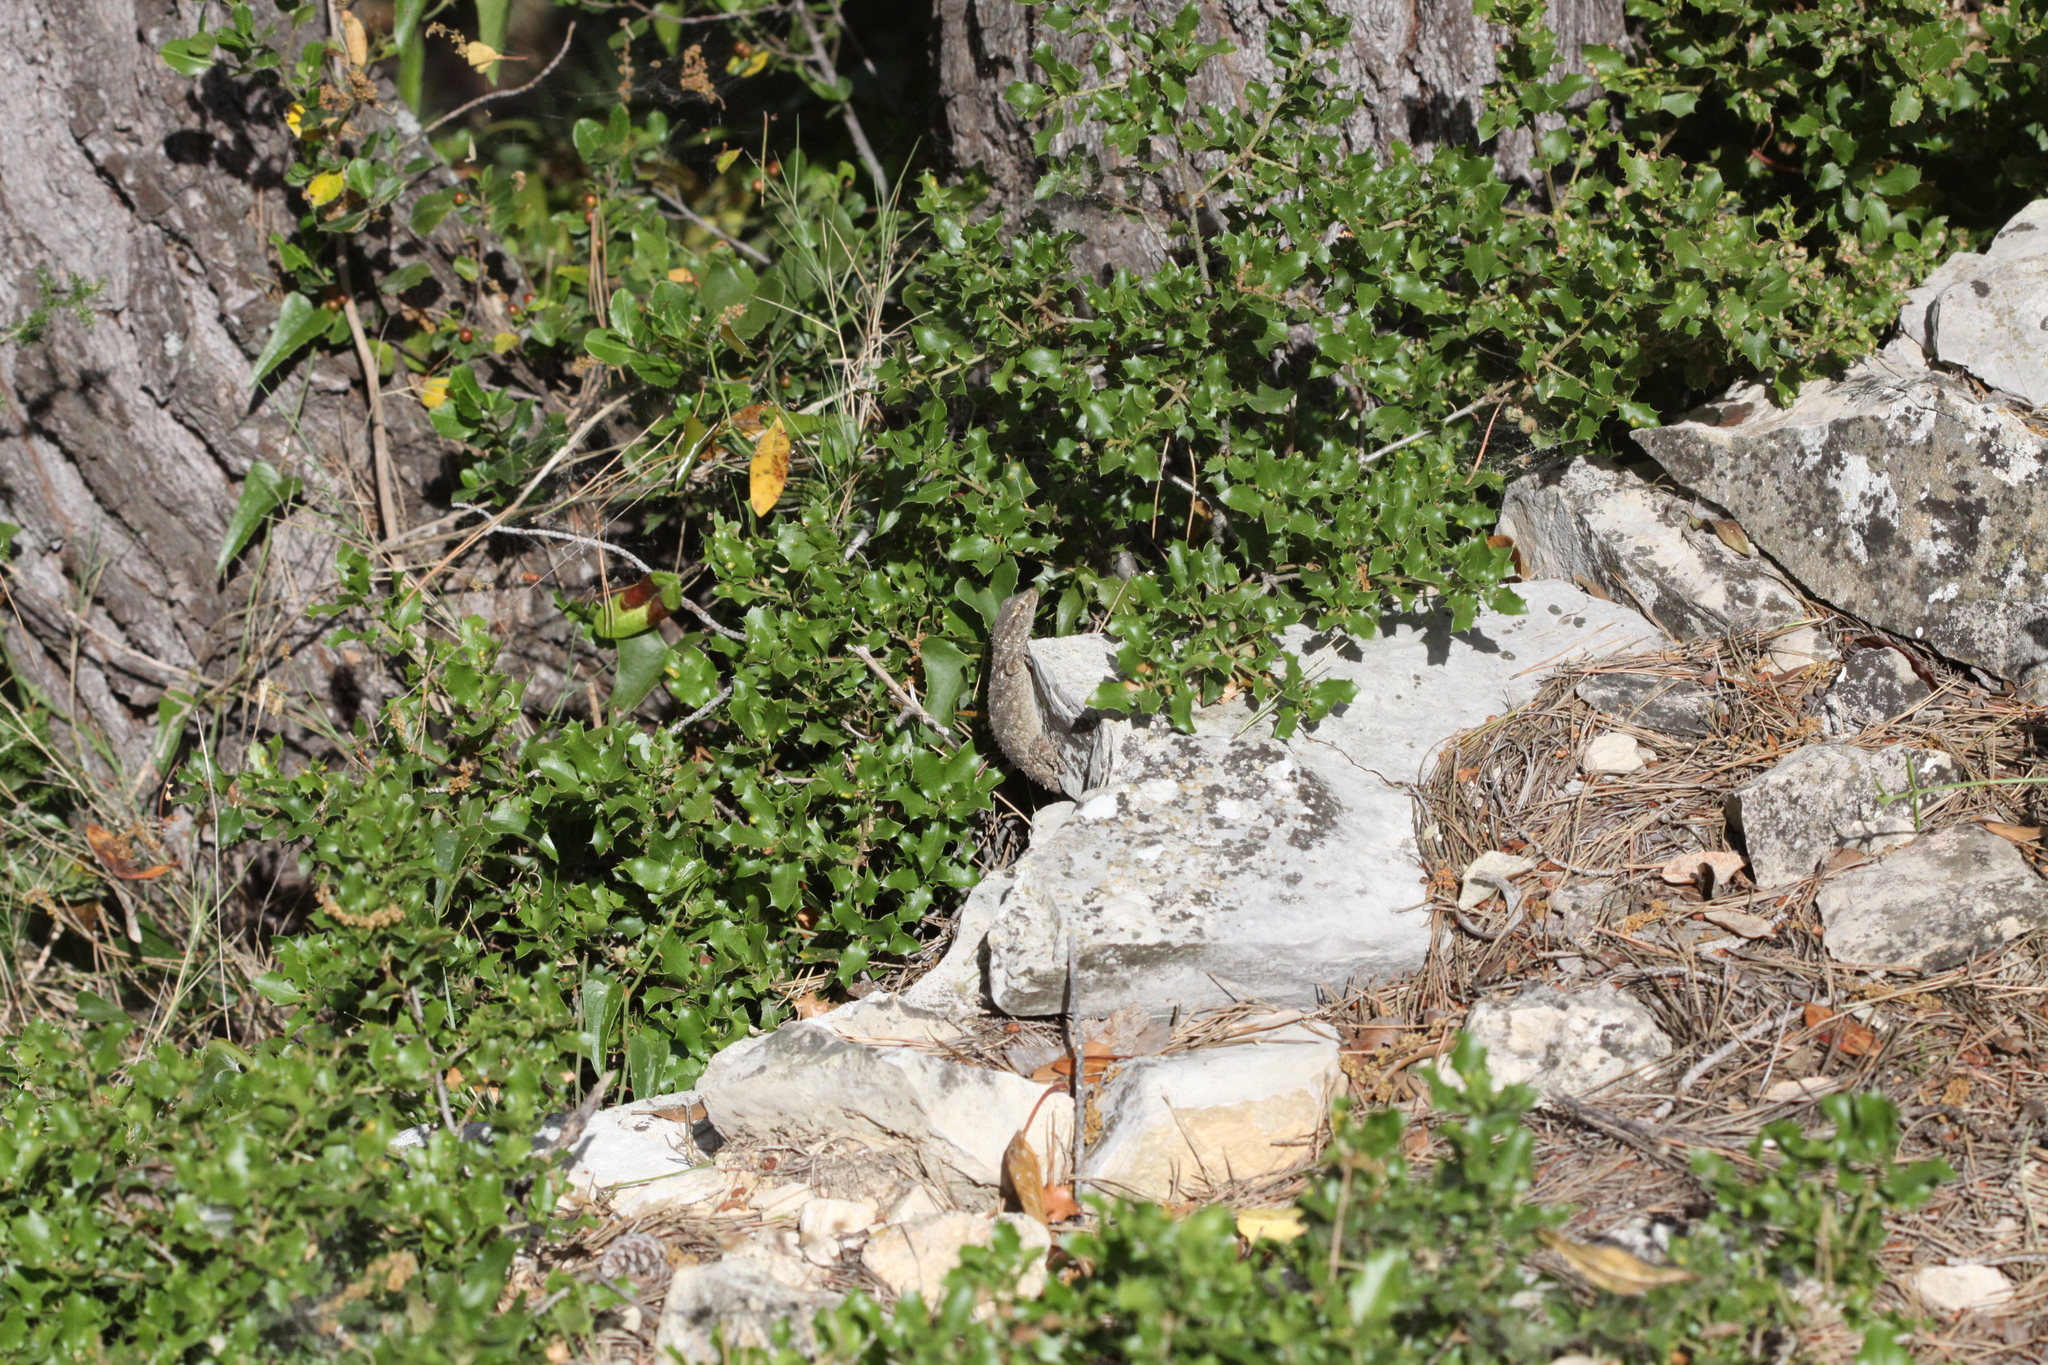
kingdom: Animalia
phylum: Chordata
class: Squamata
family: Phyllodactylidae
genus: Tarentola
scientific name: Tarentola mauritanica
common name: Moorish gecko
